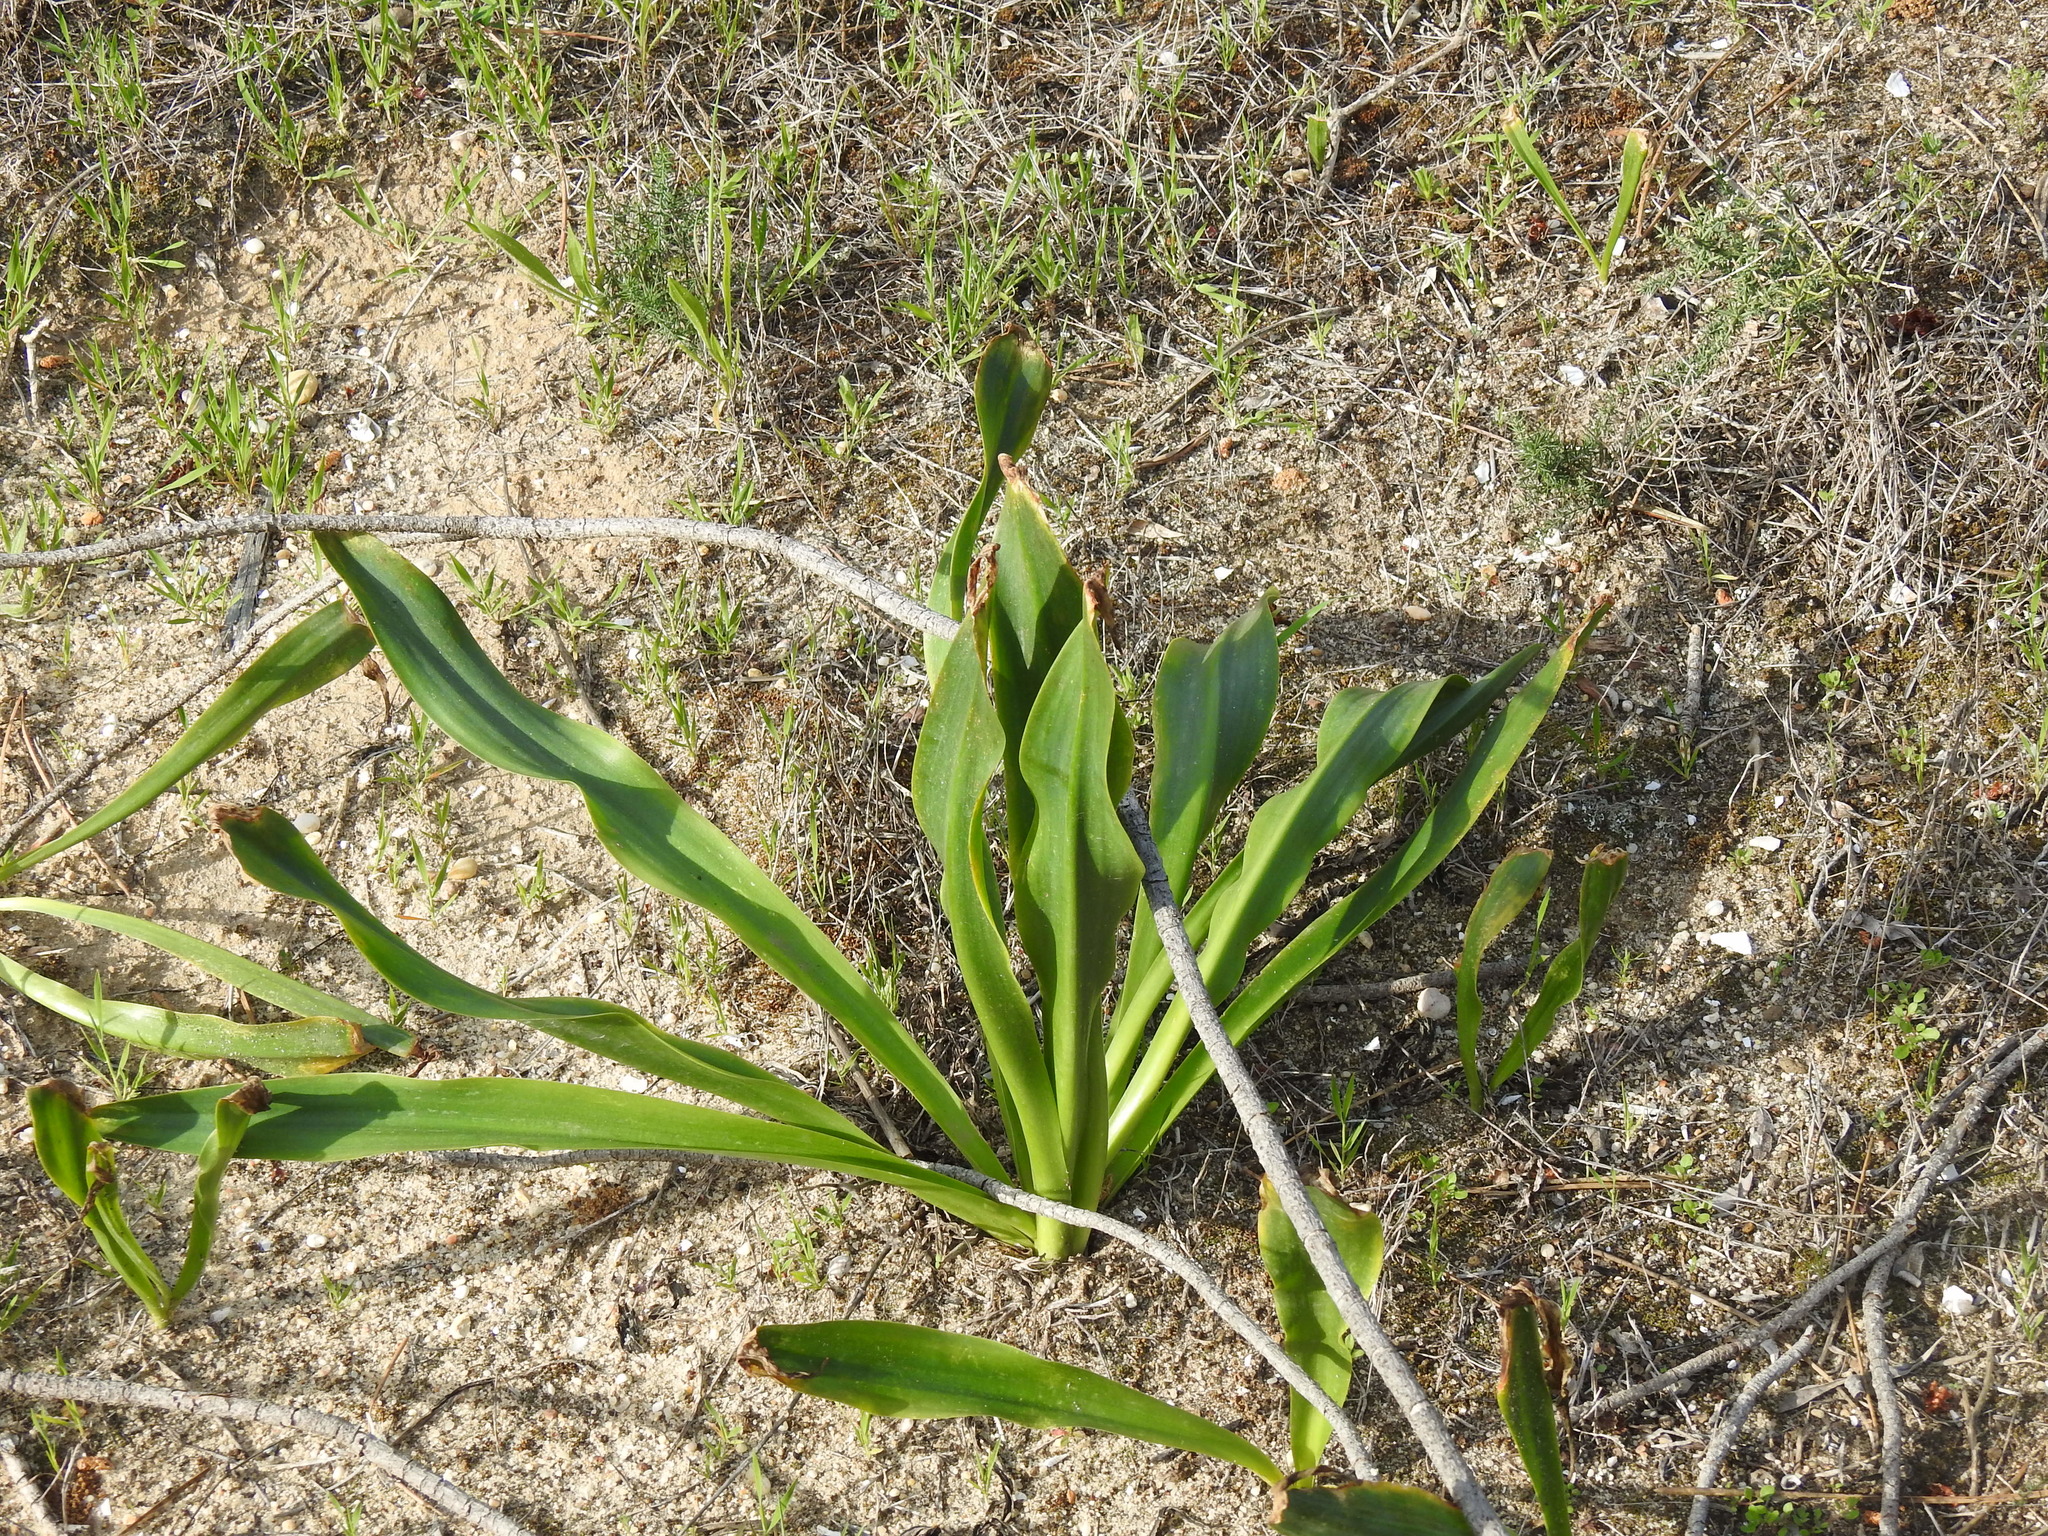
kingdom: Plantae
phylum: Tracheophyta
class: Liliopsida
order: Asparagales
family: Asparagaceae
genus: Drimia
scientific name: Drimia maritima
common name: Maritime squill
